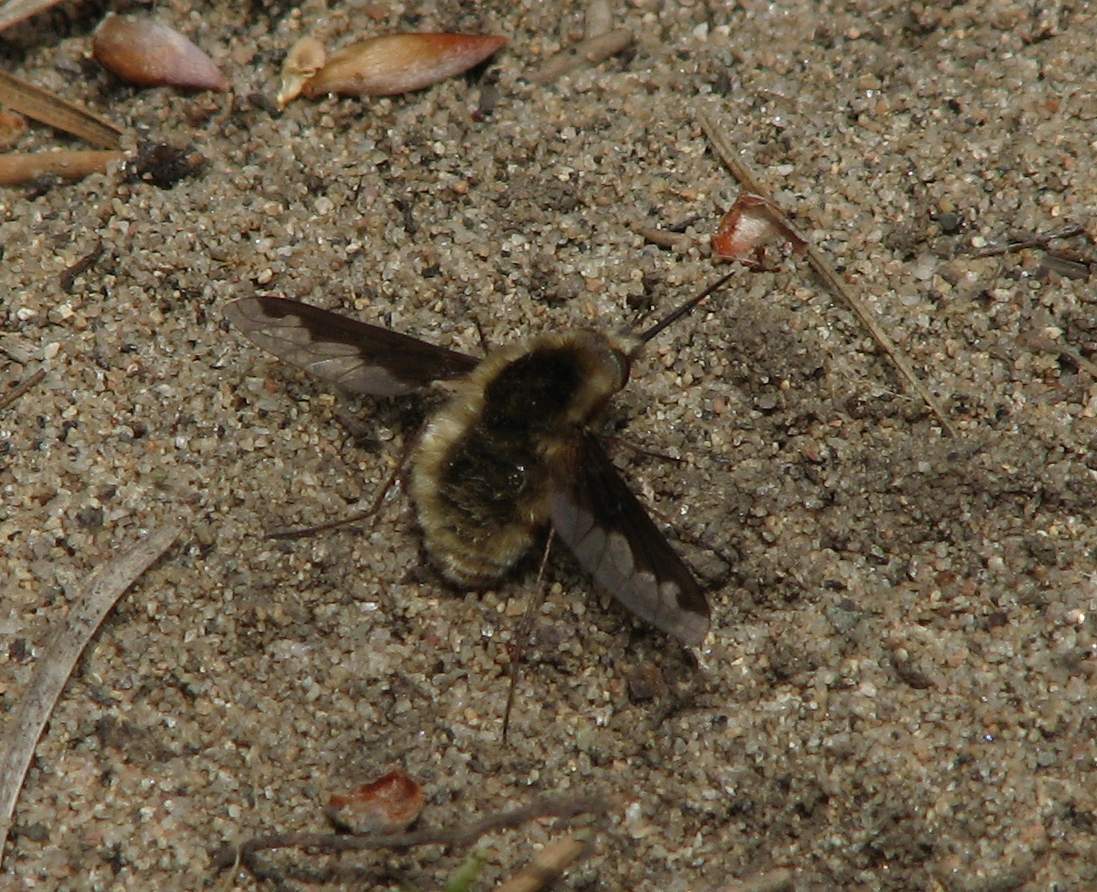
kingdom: Animalia
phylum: Arthropoda
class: Insecta
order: Diptera
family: Bombyliidae
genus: Bombylius
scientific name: Bombylius major
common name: Bee fly
